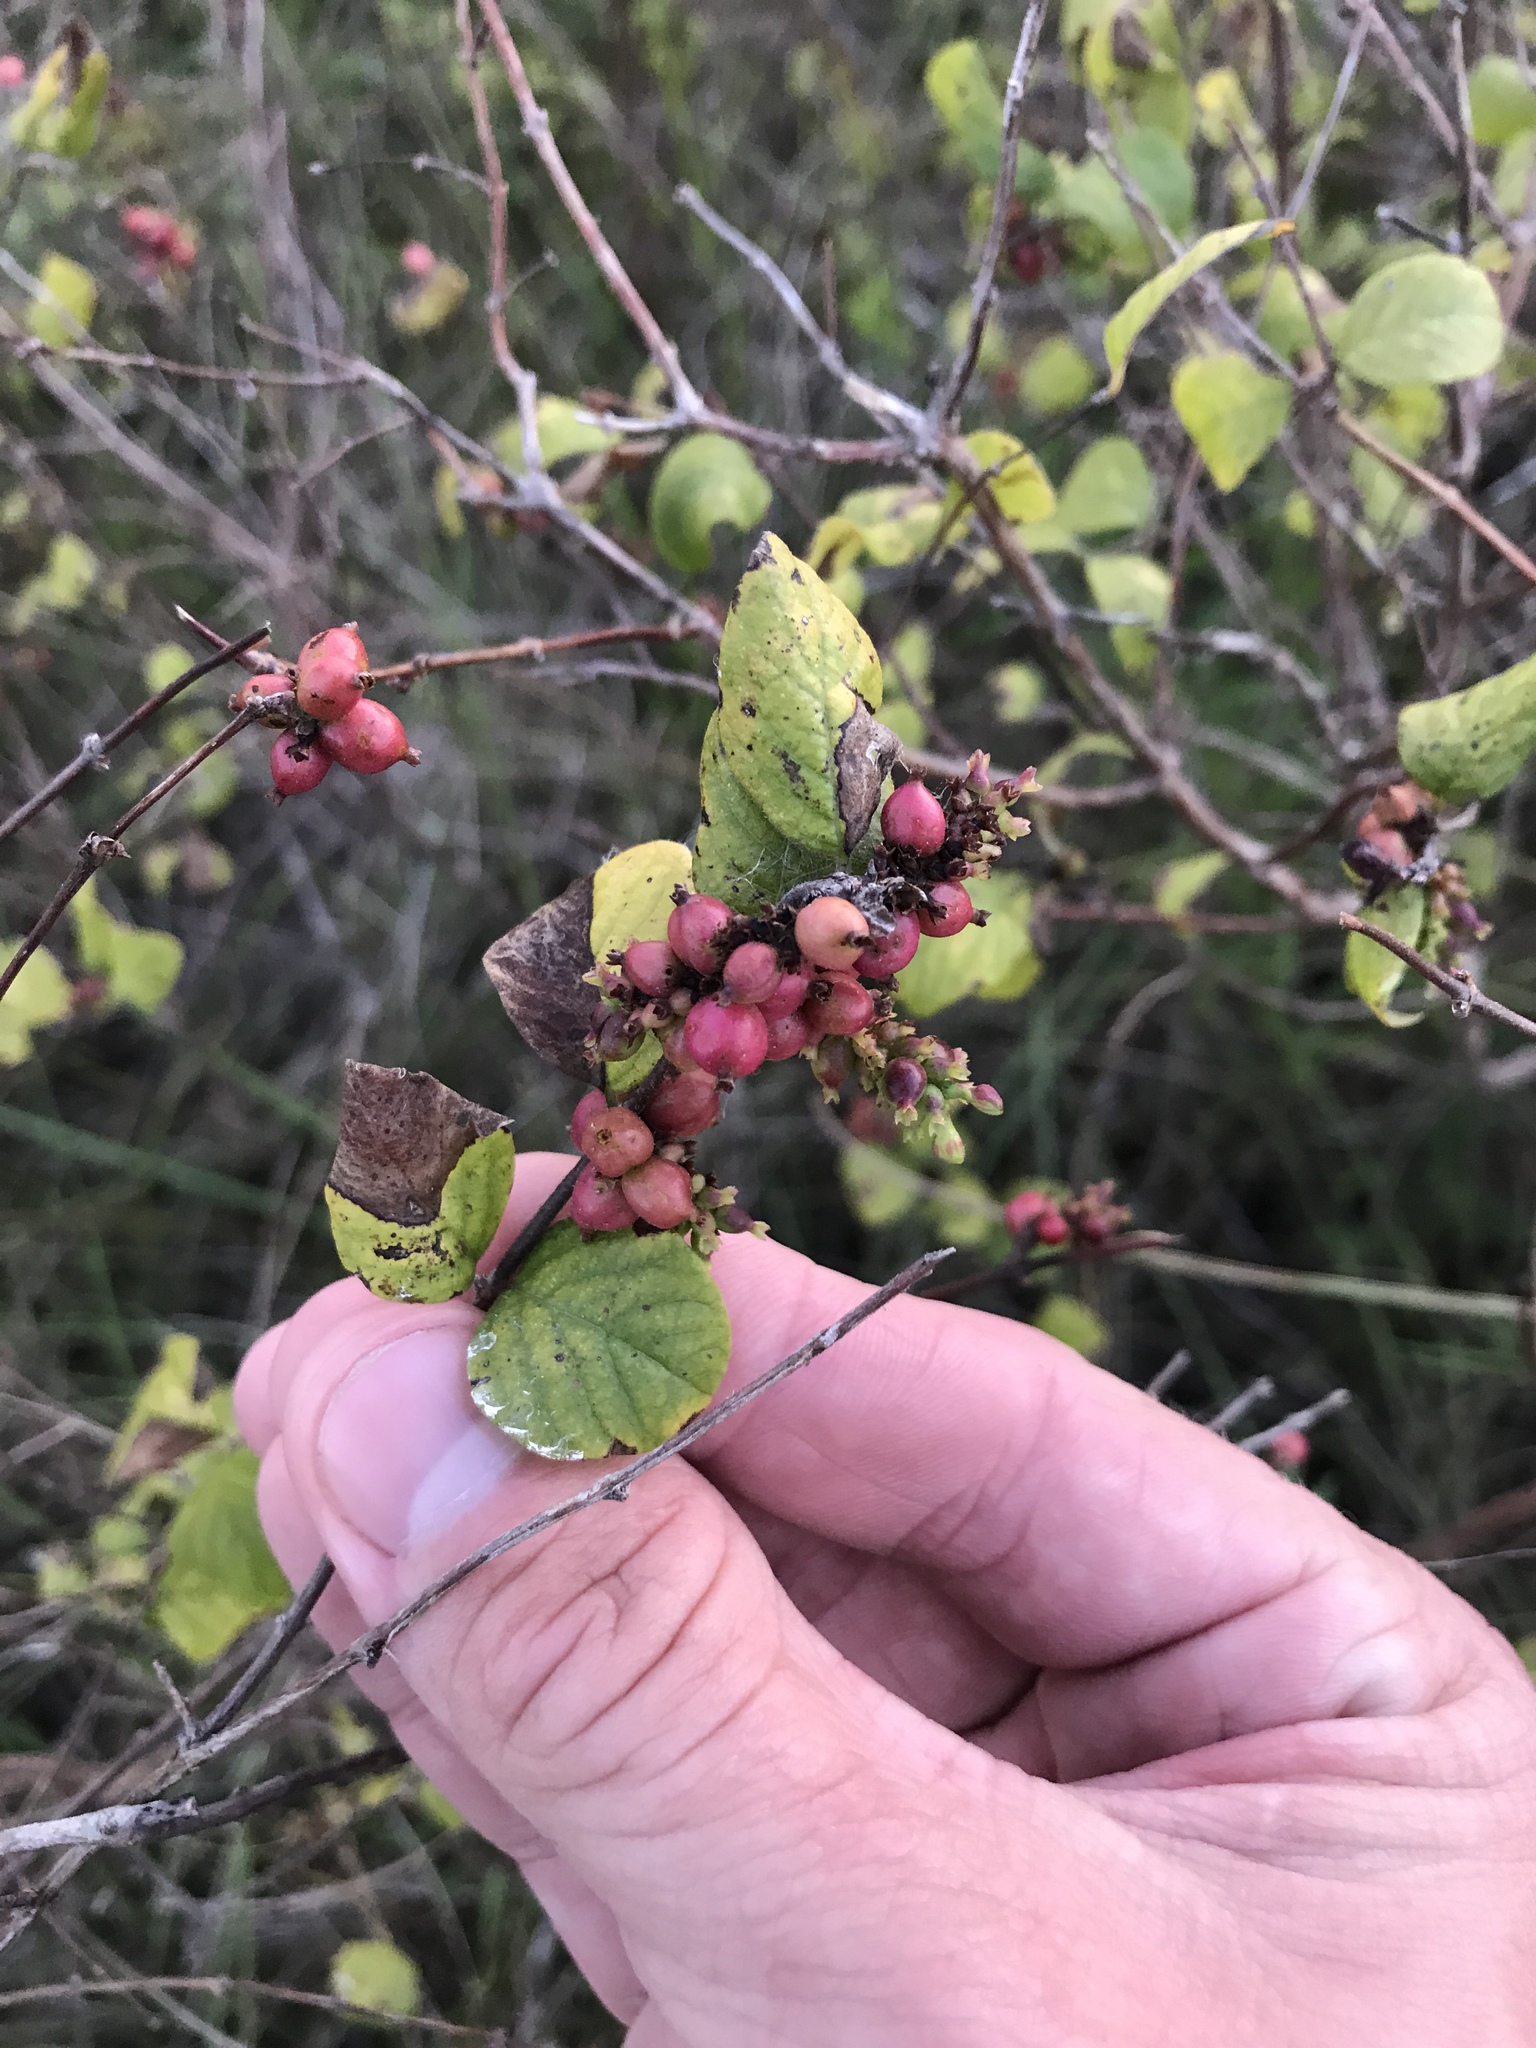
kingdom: Plantae
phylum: Tracheophyta
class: Magnoliopsida
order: Dipsacales
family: Caprifoliaceae
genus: Symphoricarpos
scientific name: Symphoricarpos orbiculatus
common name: Coralberry
